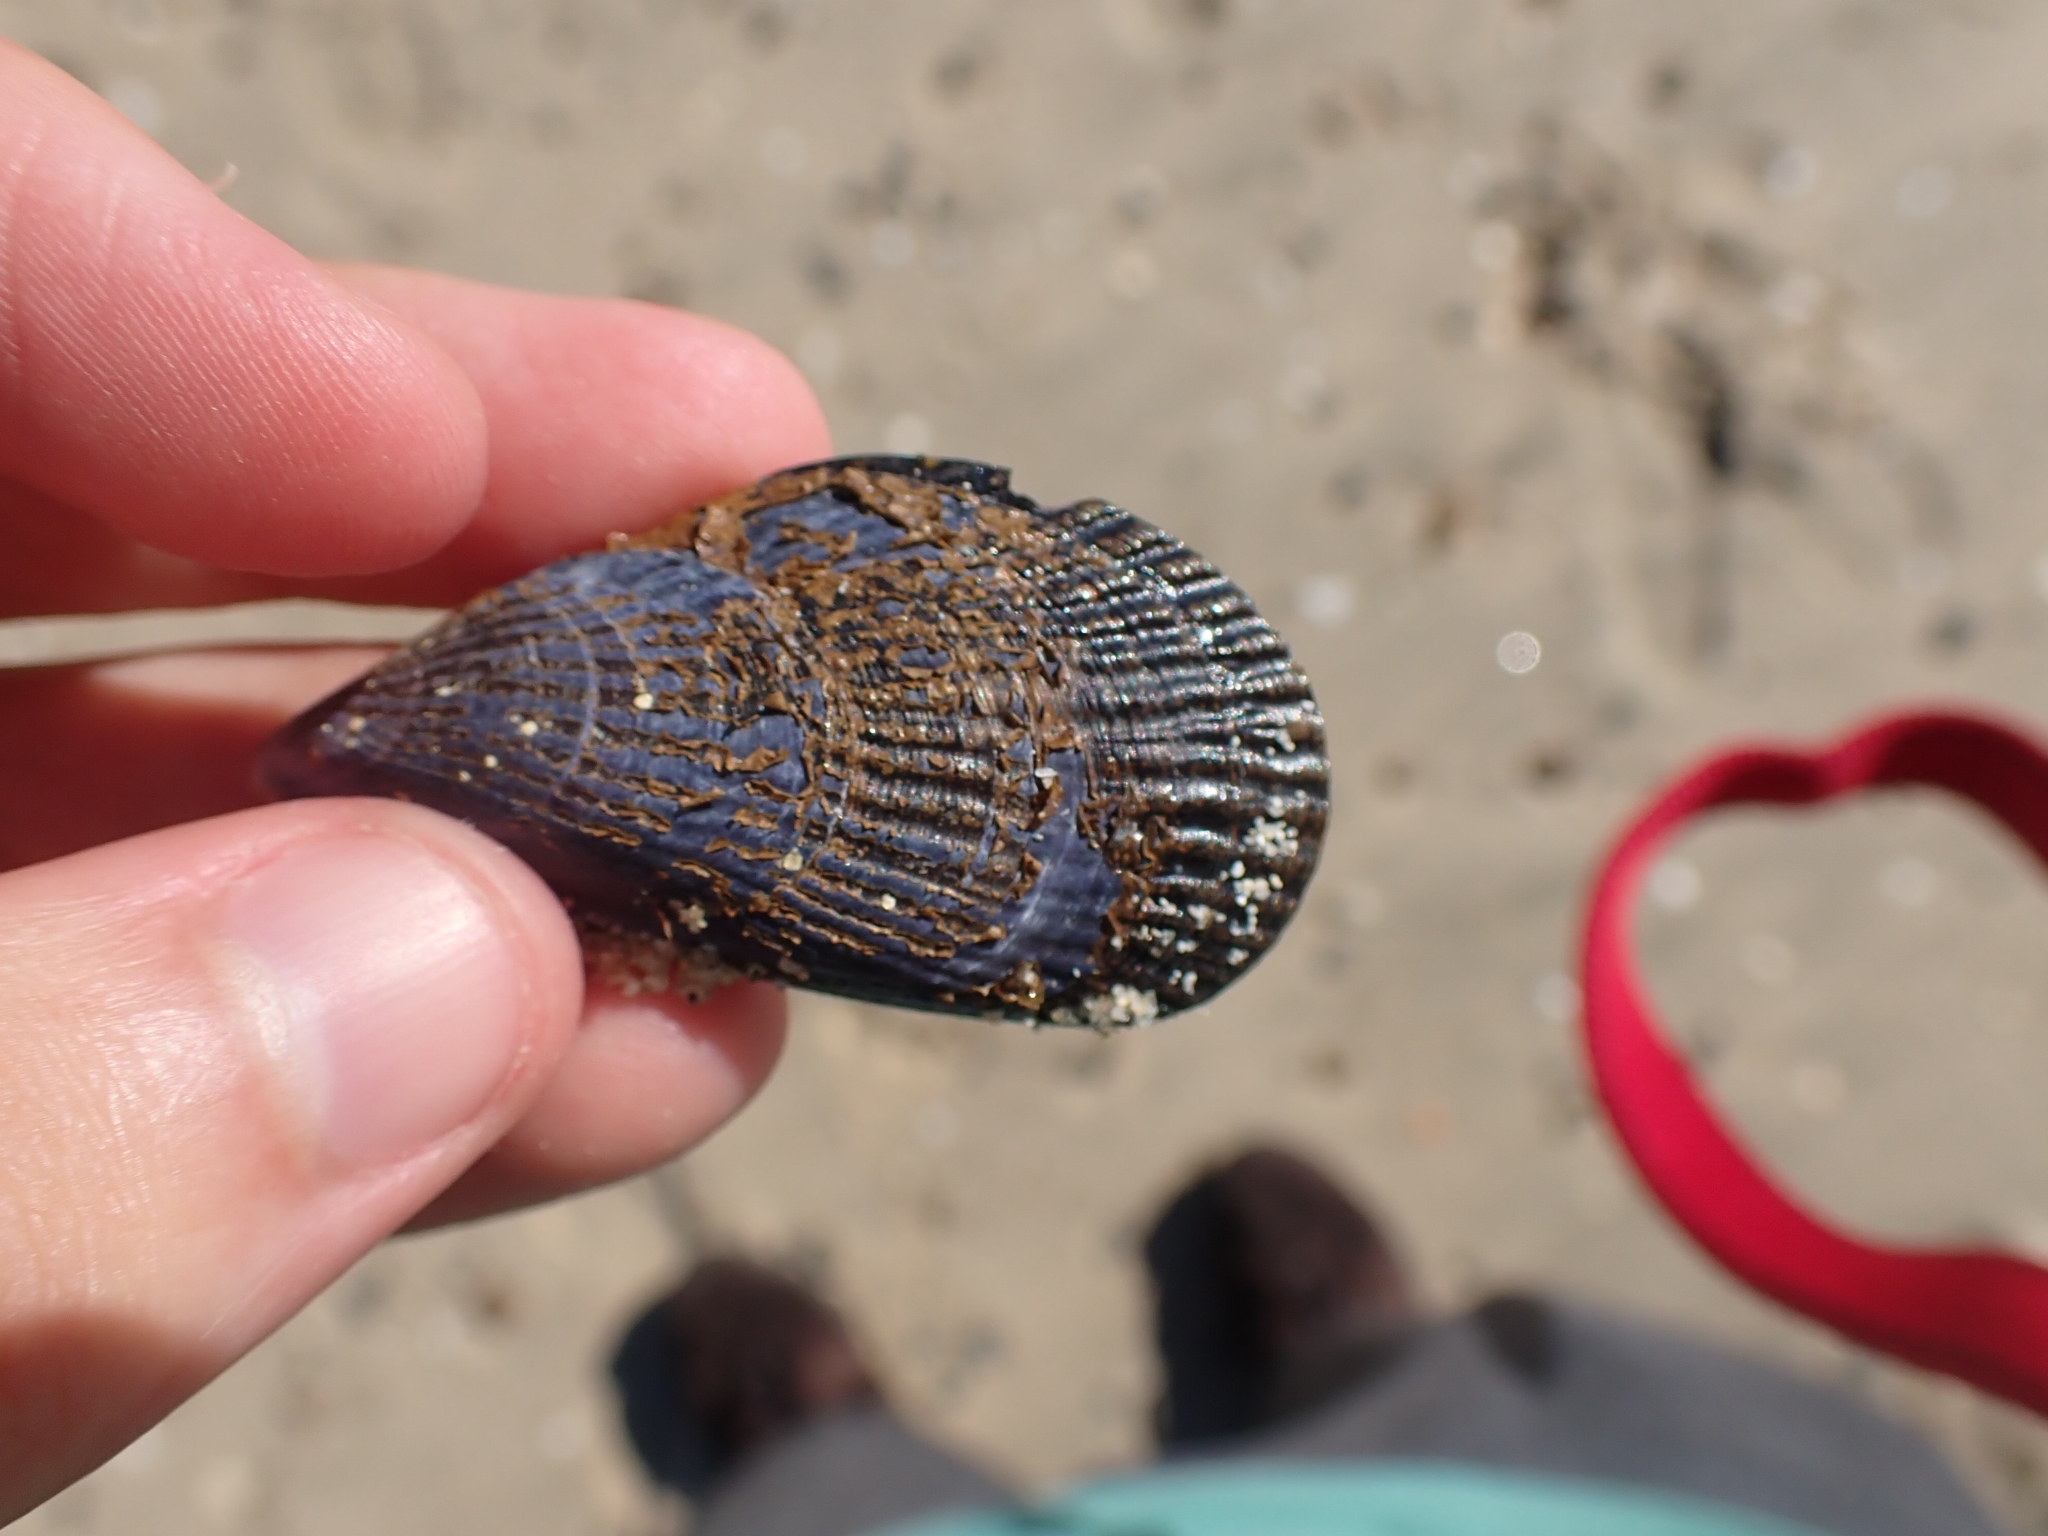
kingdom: Animalia
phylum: Mollusca
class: Bivalvia
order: Mytilida
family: Mytilidae
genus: Aulacomya
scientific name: Aulacomya maoriana
